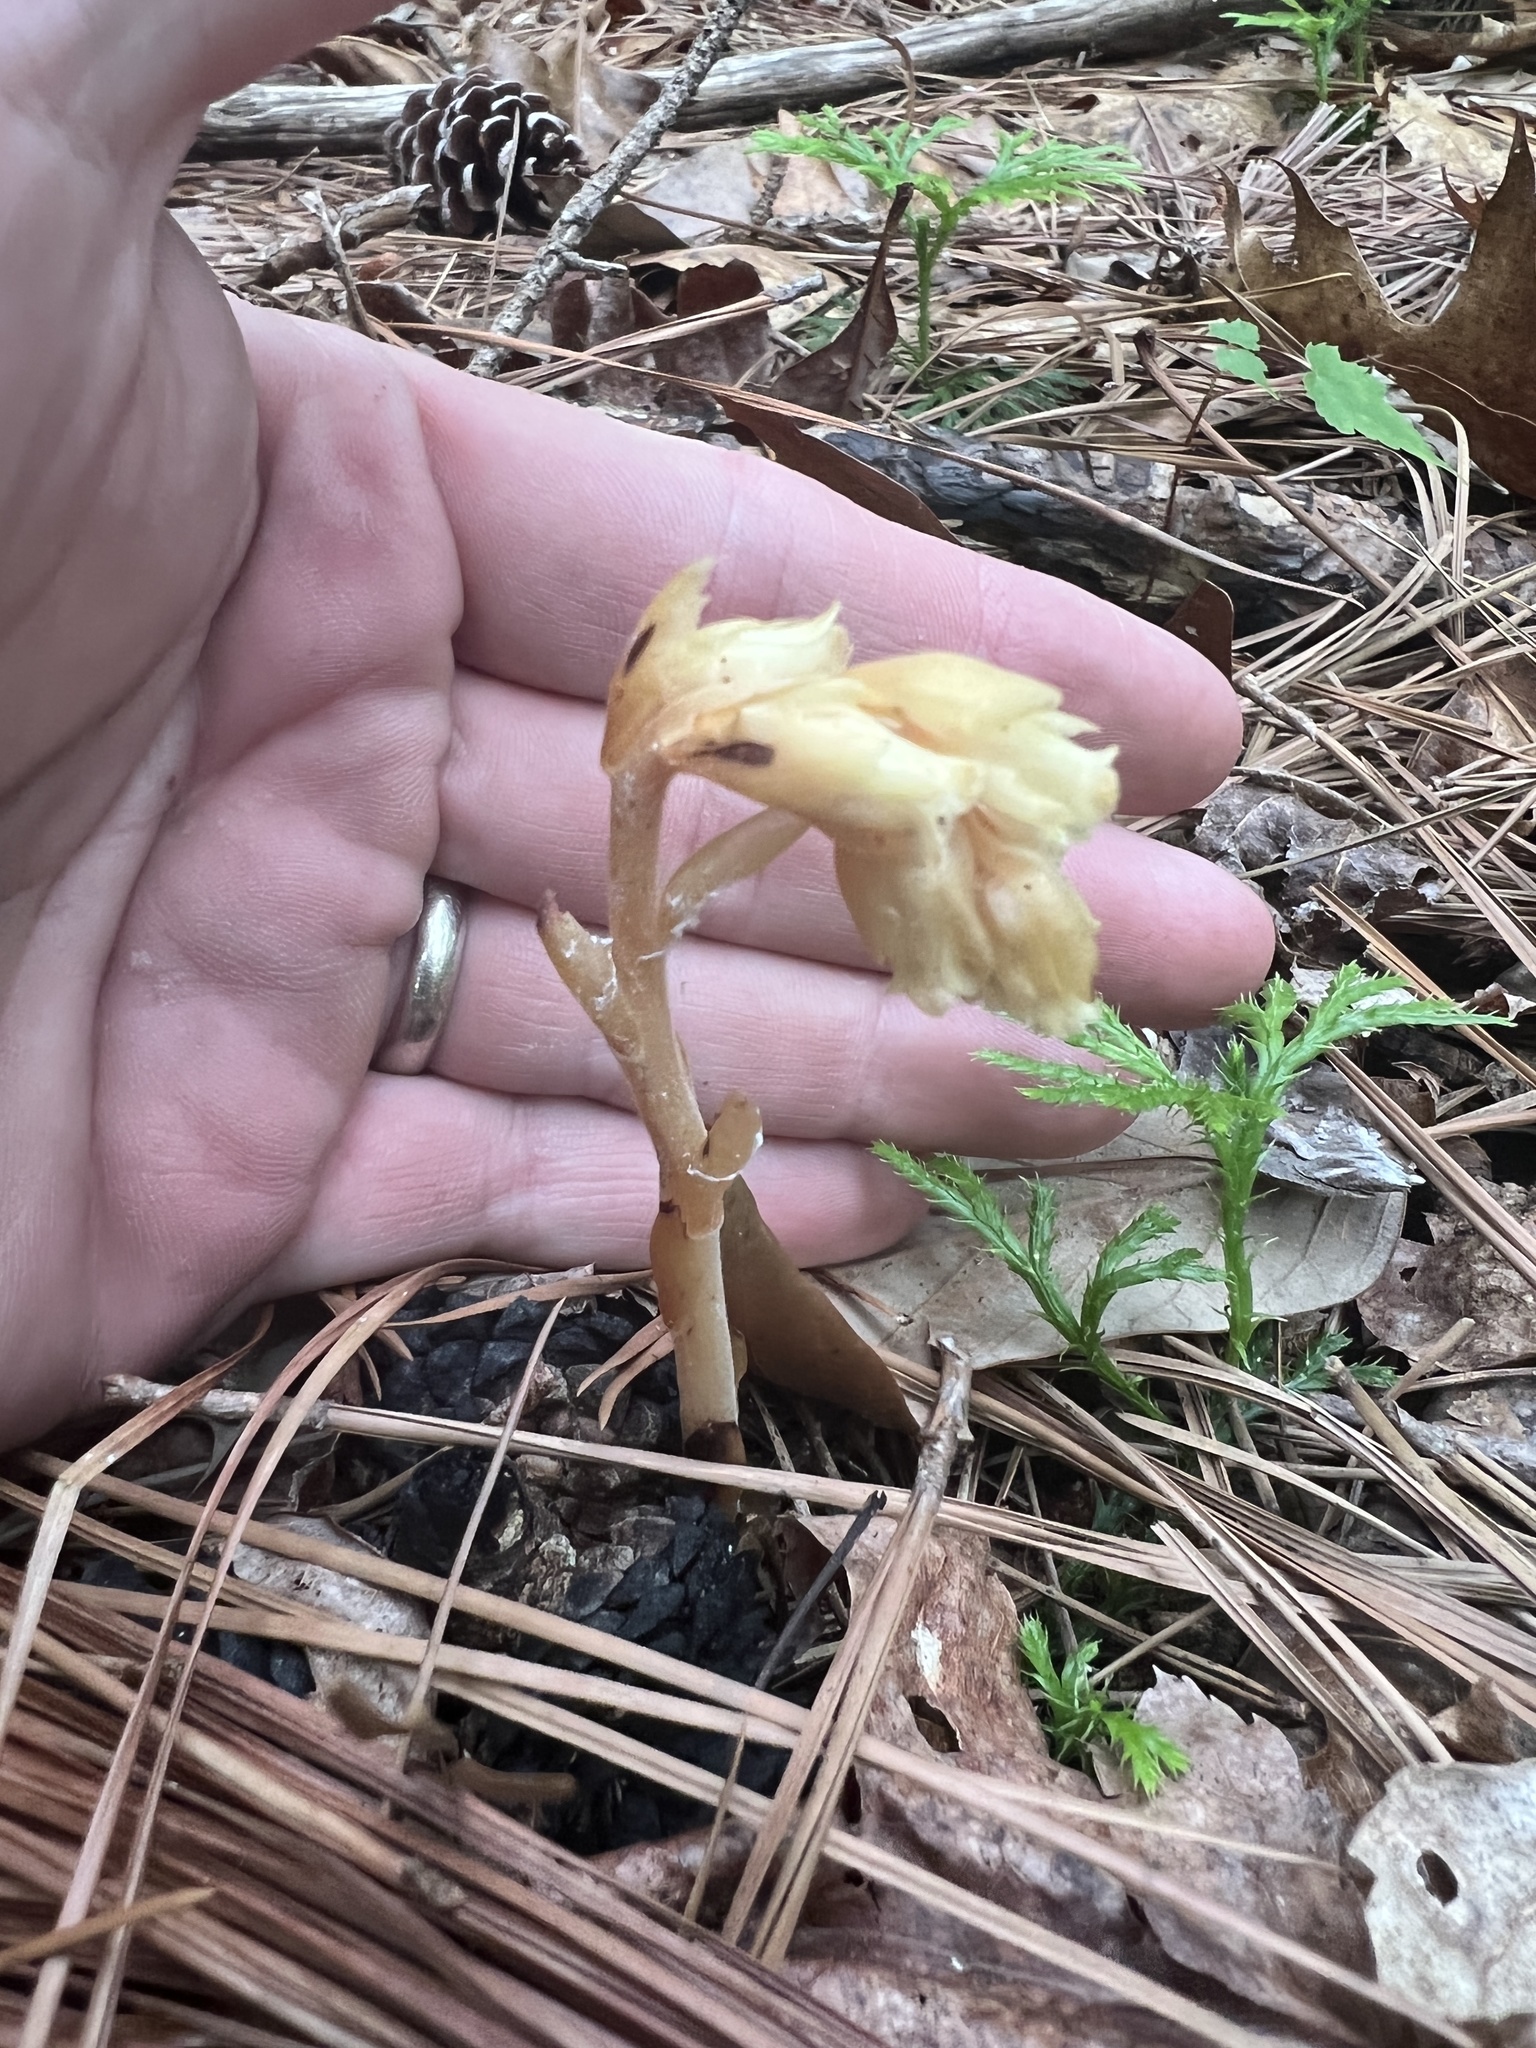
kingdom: Plantae
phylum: Tracheophyta
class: Magnoliopsida
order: Ericales
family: Ericaceae
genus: Hypopitys
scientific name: Hypopitys monotropa
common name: Yellow bird's-nest
